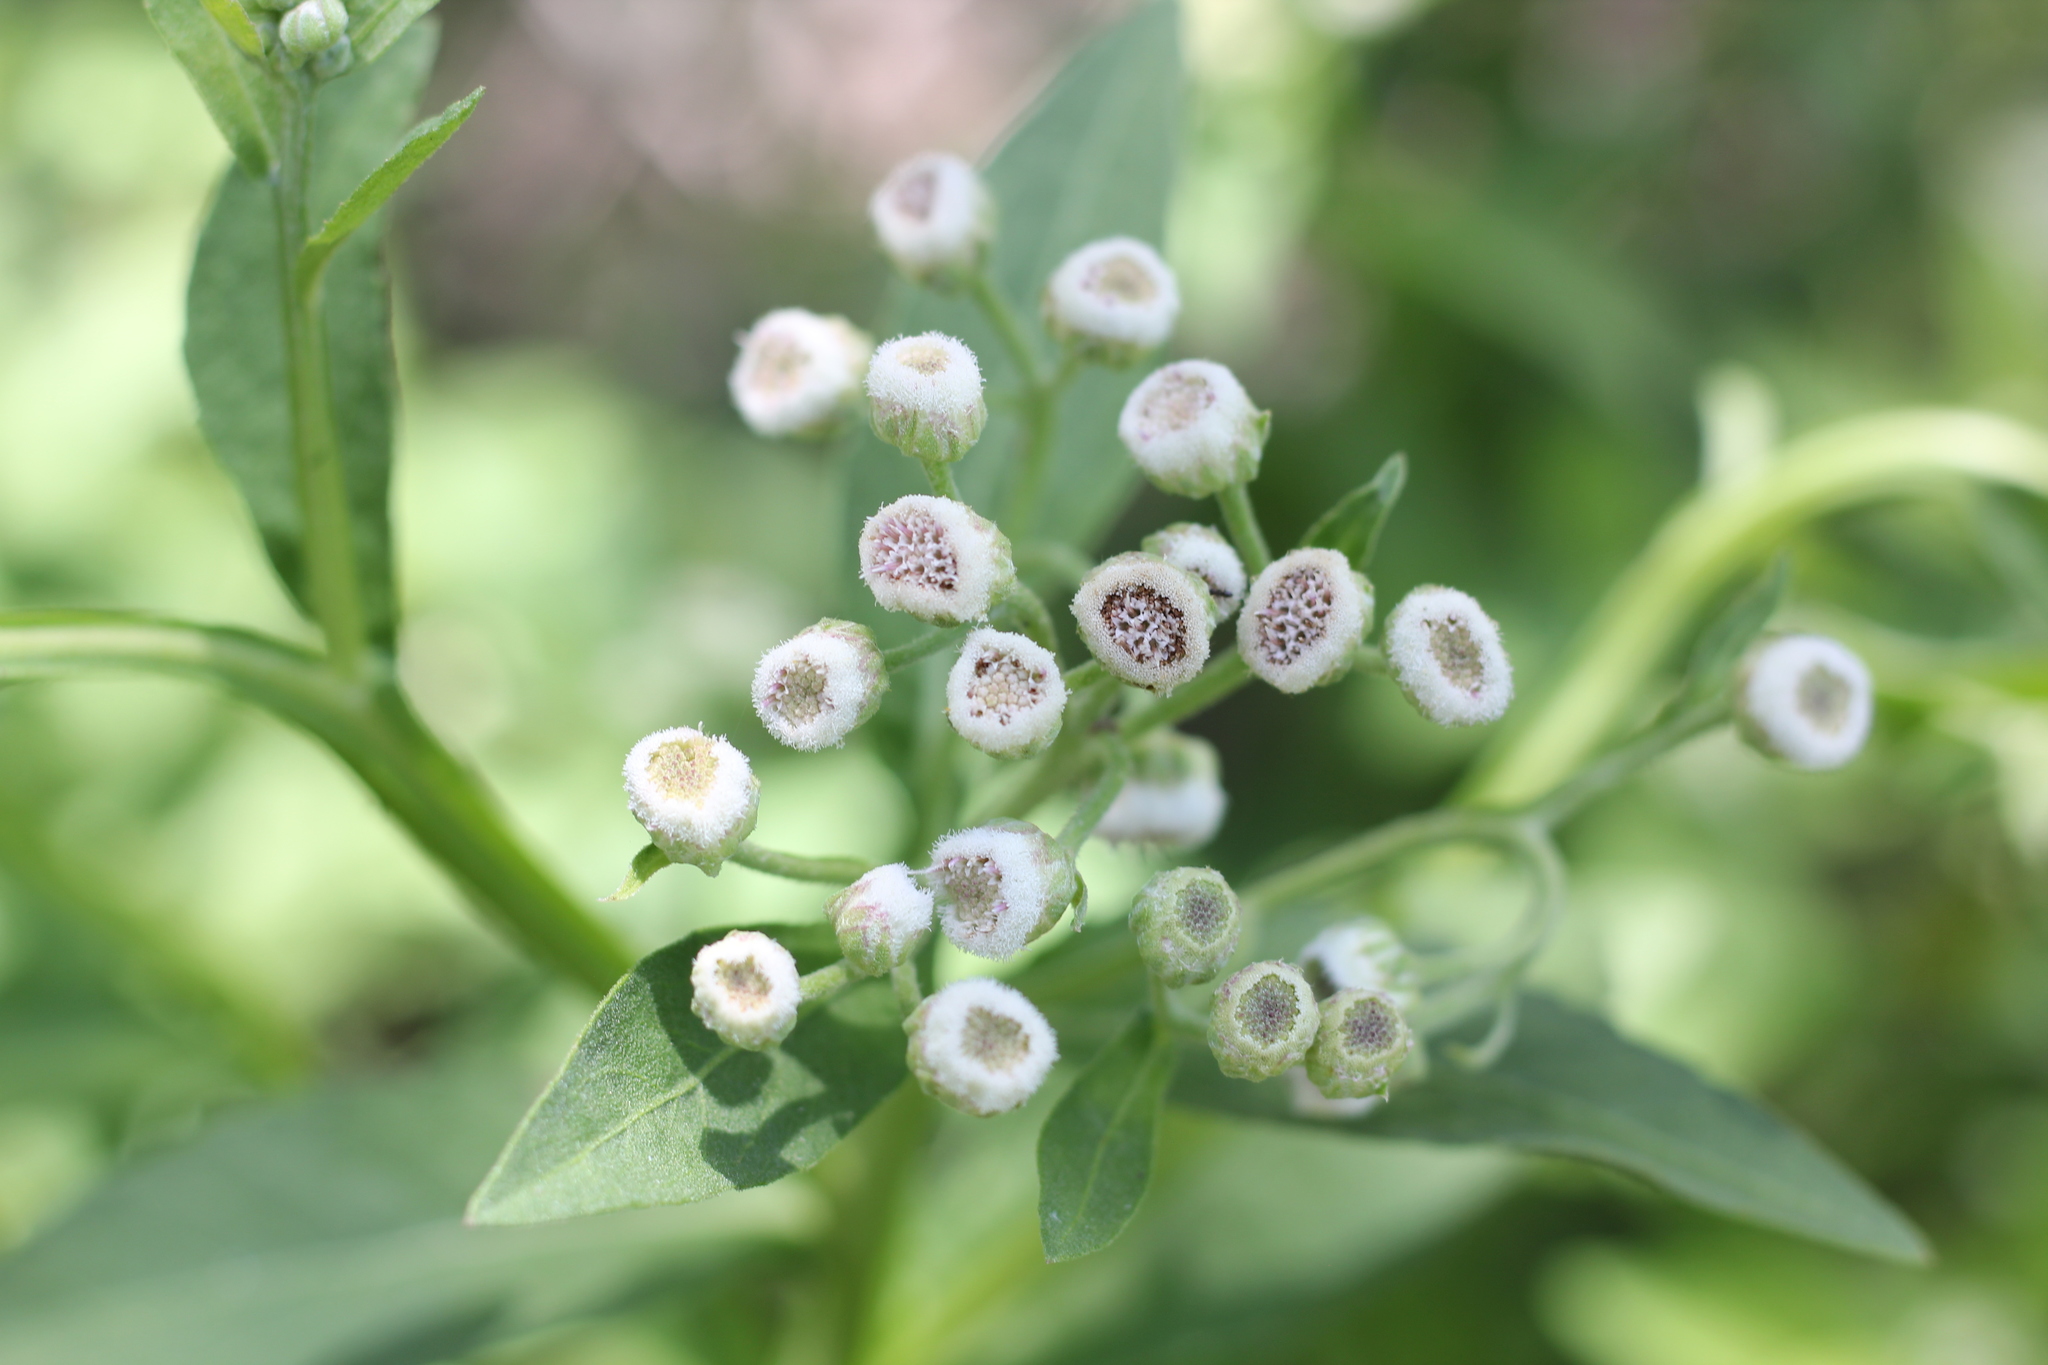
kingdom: Plantae
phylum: Tracheophyta
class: Magnoliopsida
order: Asterales
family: Asteraceae
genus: Pluchea
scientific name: Pluchea sagittalis
